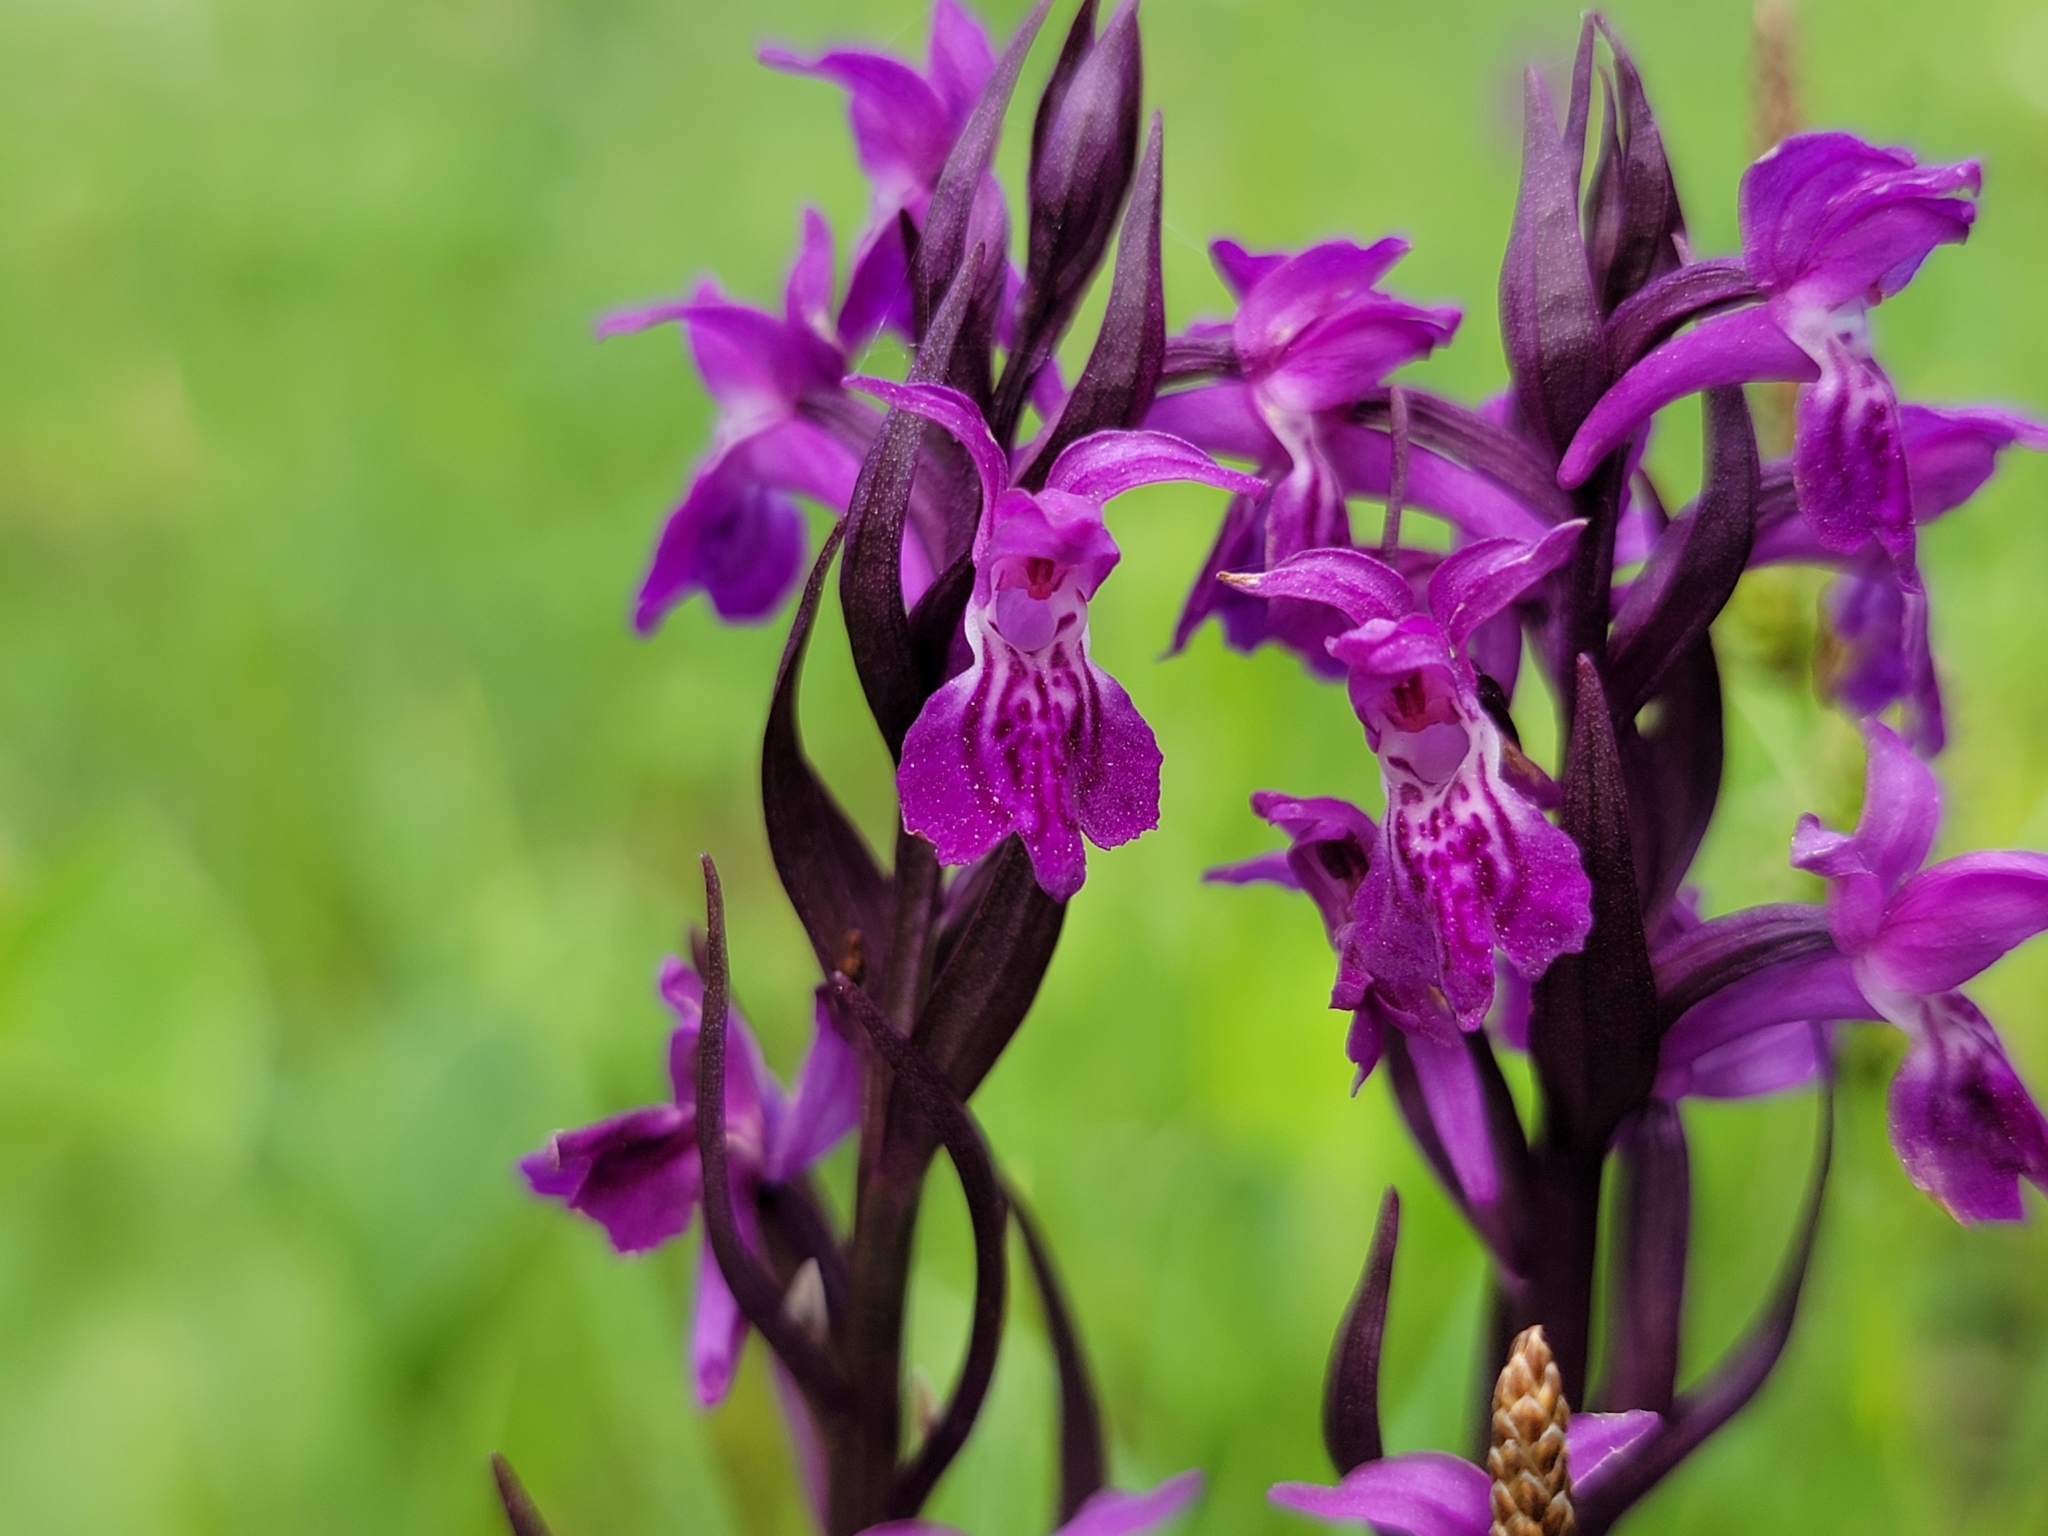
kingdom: Plantae
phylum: Tracheophyta
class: Liliopsida
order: Asparagales
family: Orchidaceae
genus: Dactylorhiza
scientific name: Dactylorhiza majalis
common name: Marsh orchid
